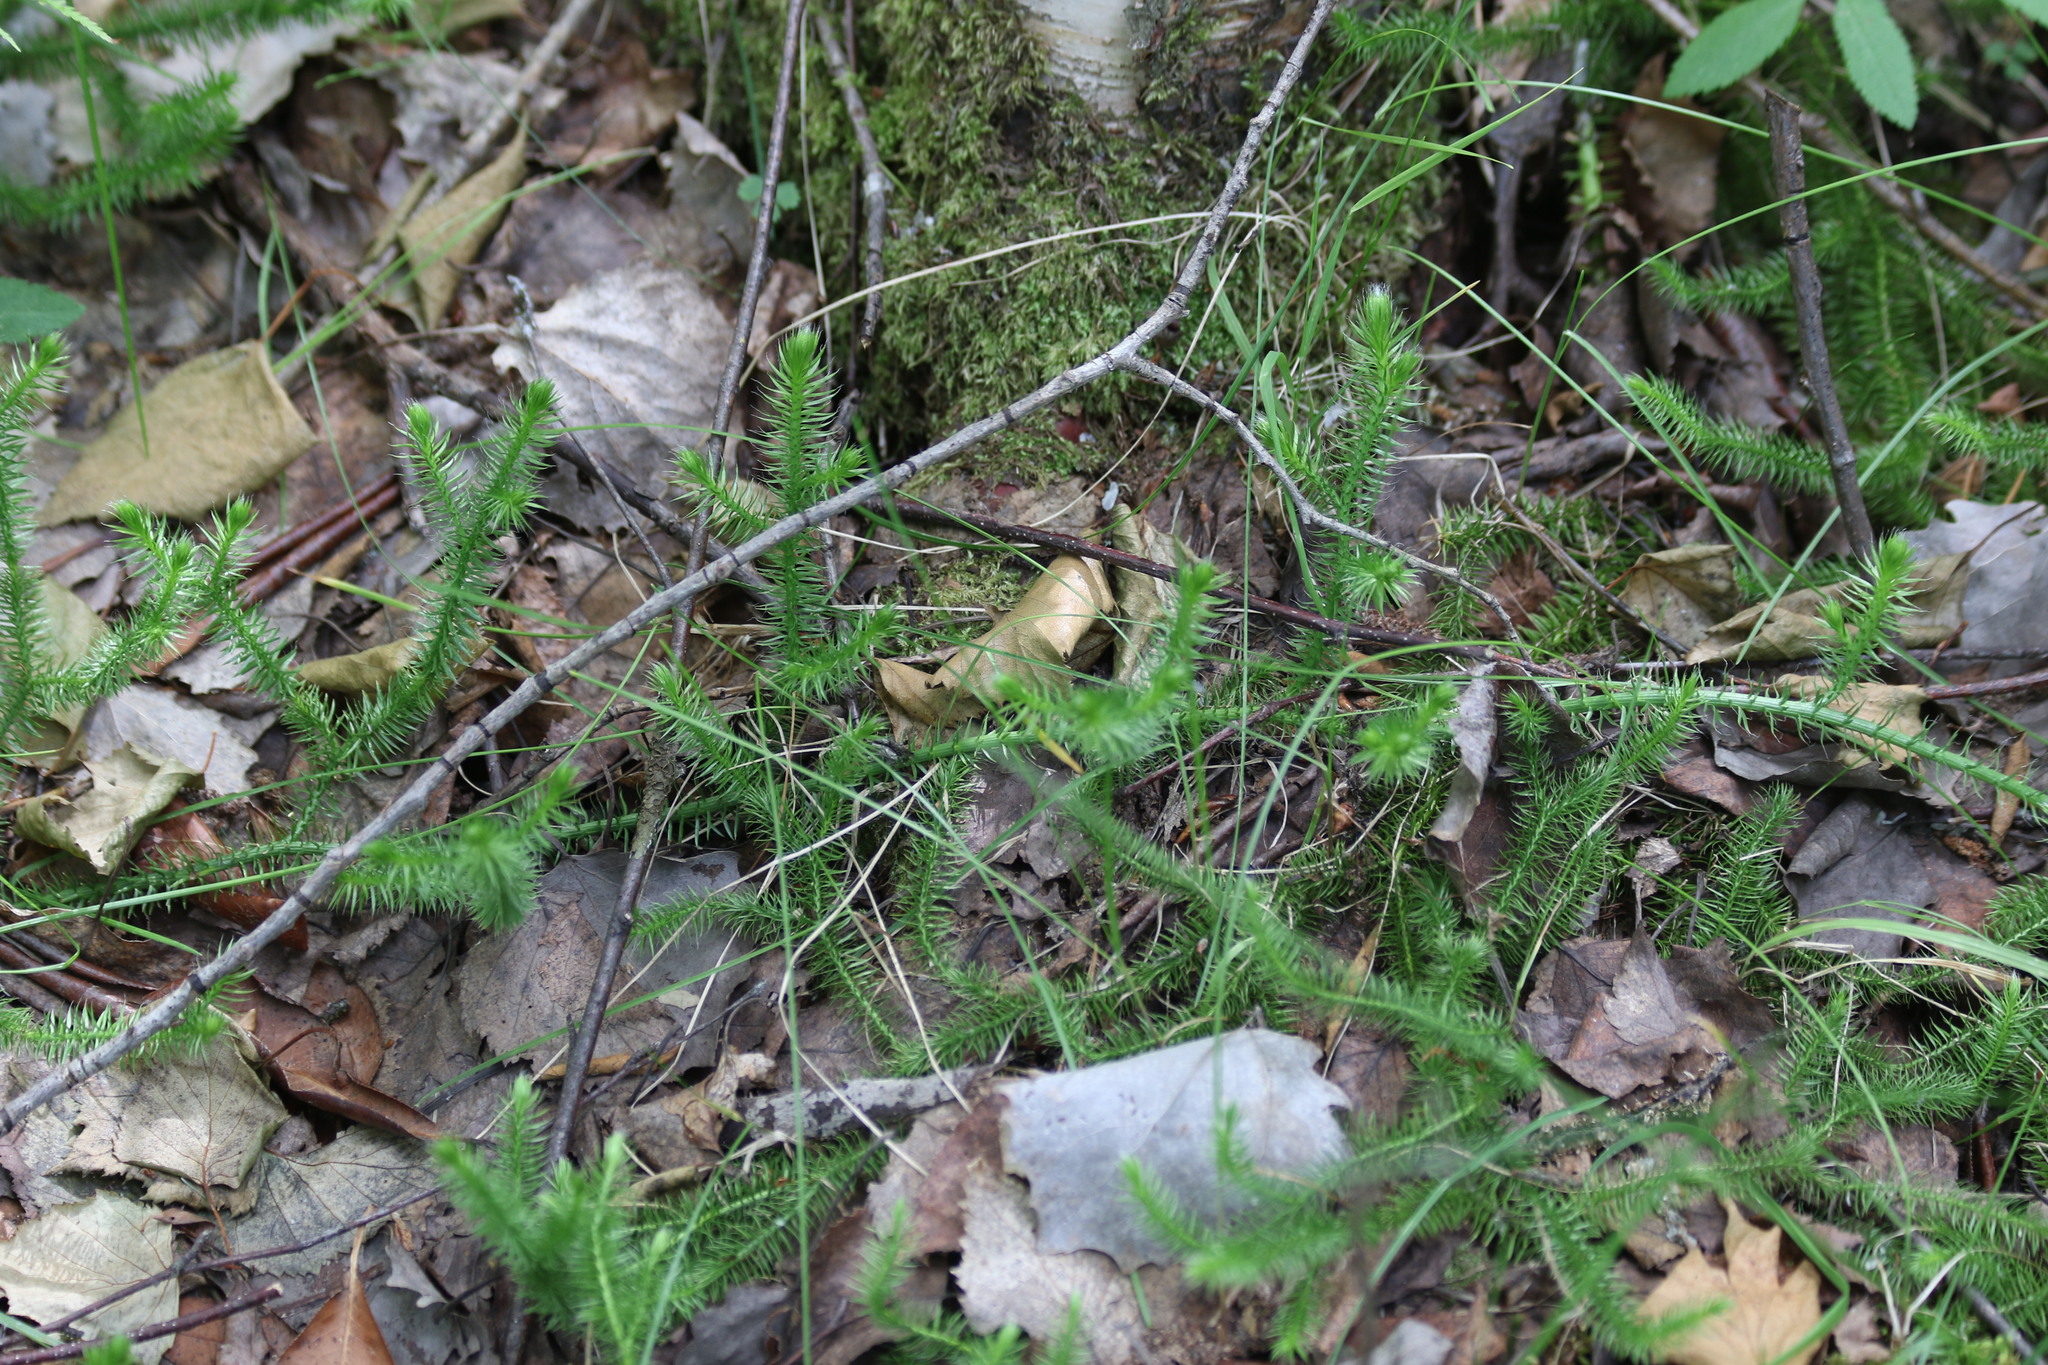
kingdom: Plantae
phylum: Tracheophyta
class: Lycopodiopsida
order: Lycopodiales
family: Lycopodiaceae
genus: Lycopodium
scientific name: Lycopodium clavatum
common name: Stag's-horn clubmoss
